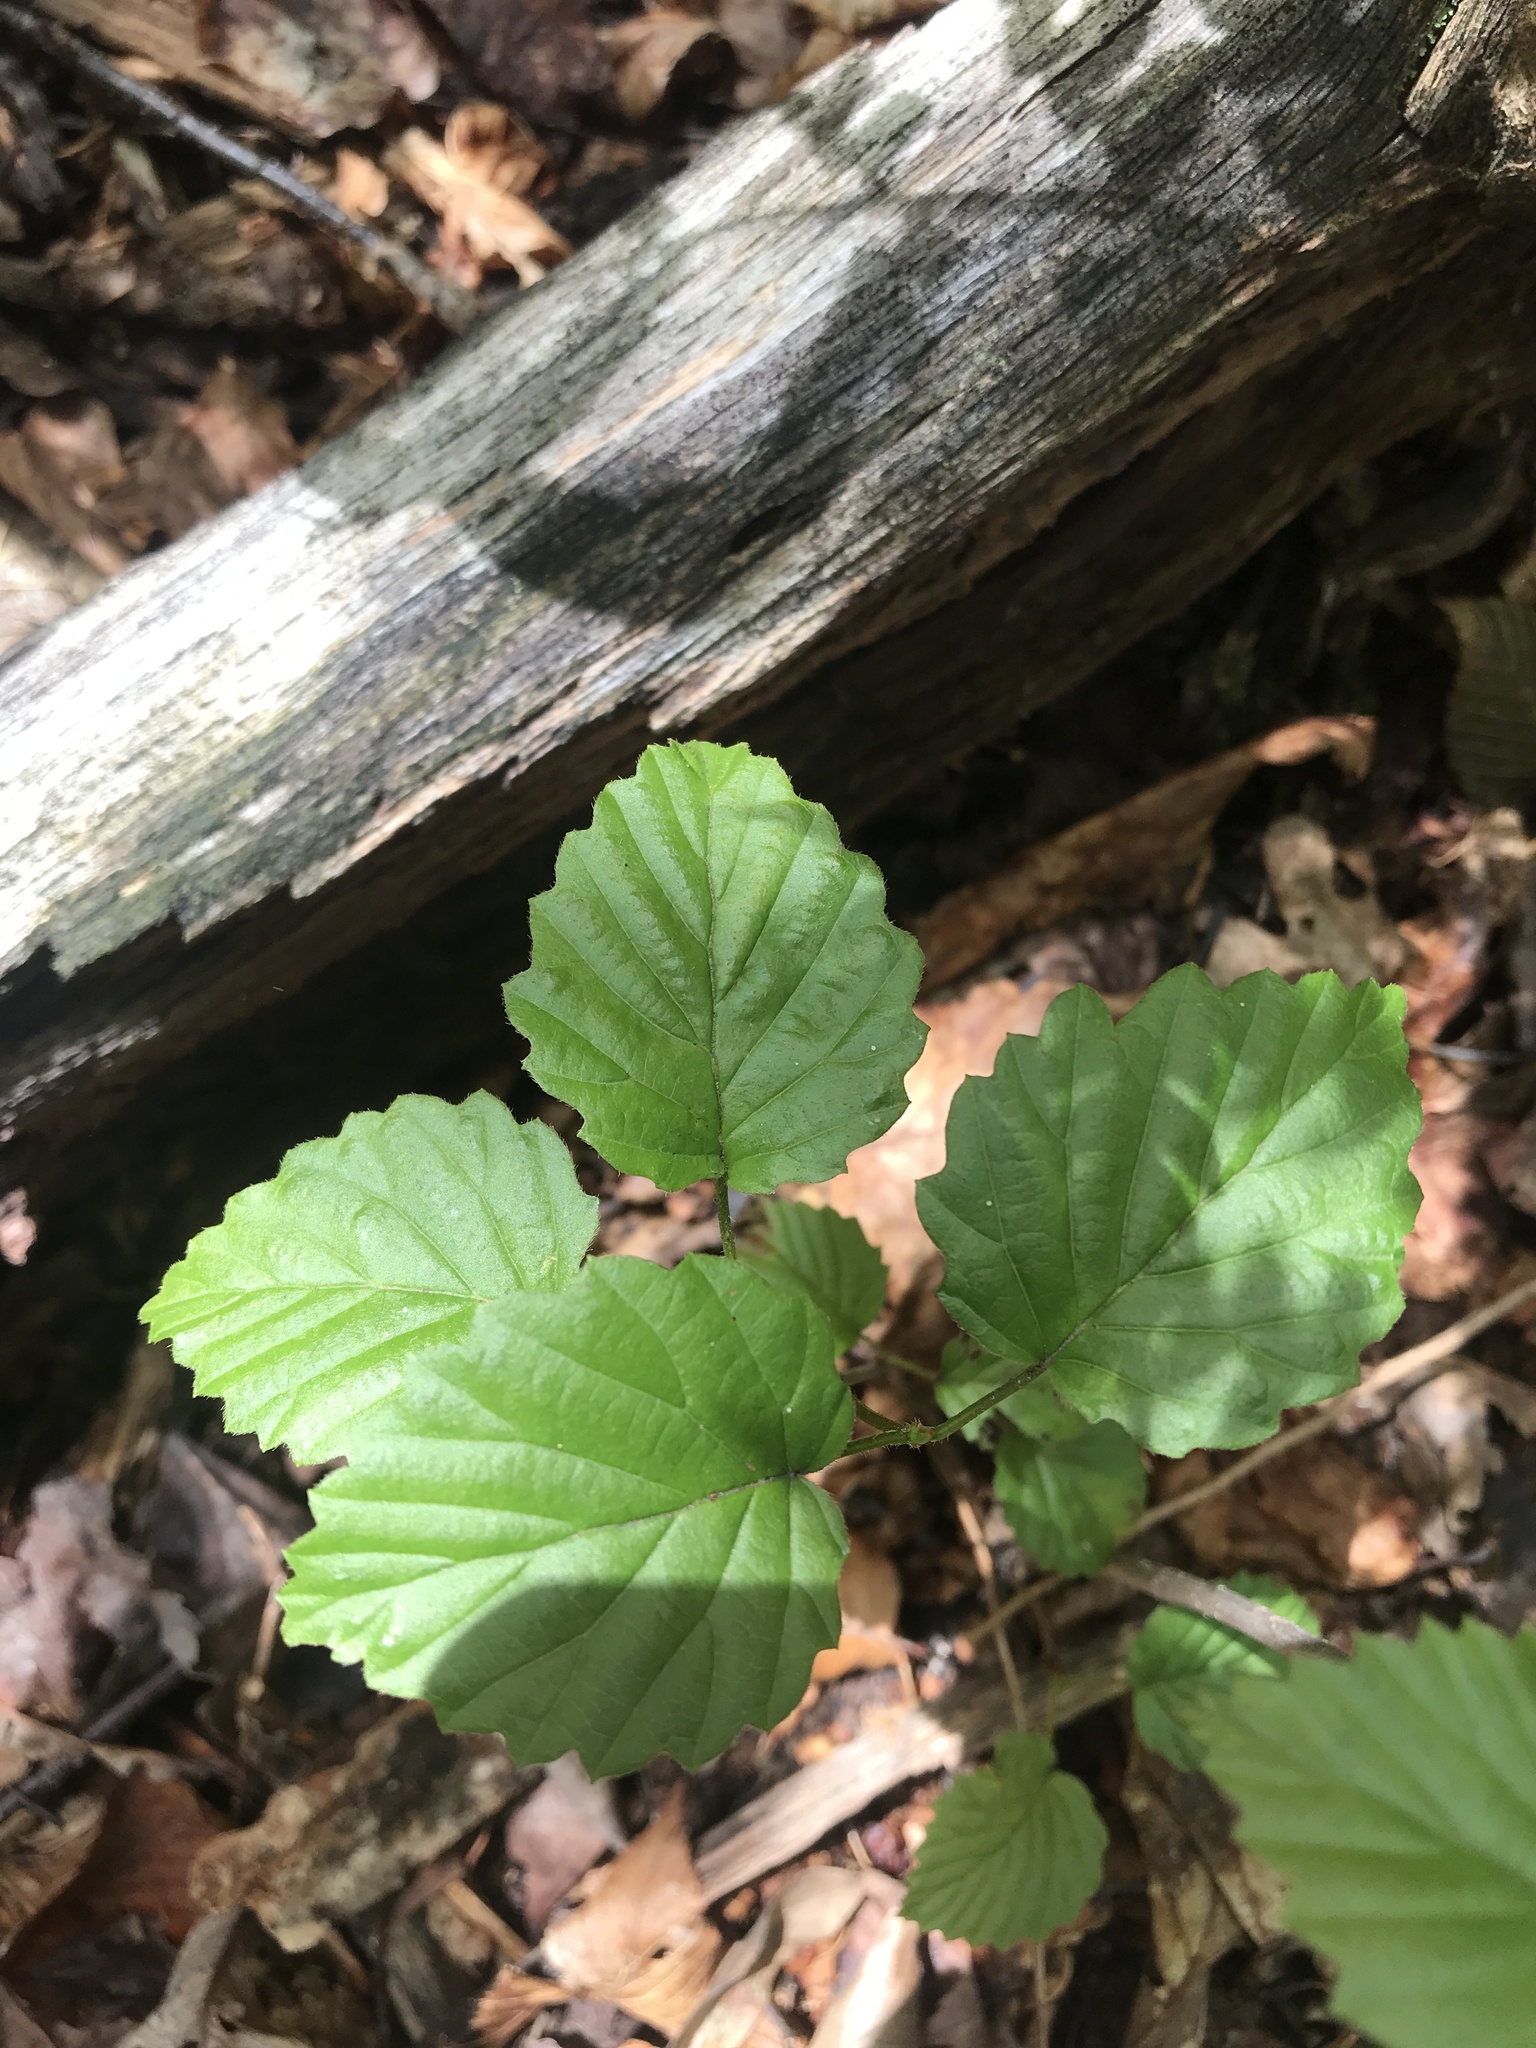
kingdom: Plantae
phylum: Tracheophyta
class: Magnoliopsida
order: Dipsacales
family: Viburnaceae
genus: Viburnum
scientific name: Viburnum dentatum
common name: Arrow-wood
